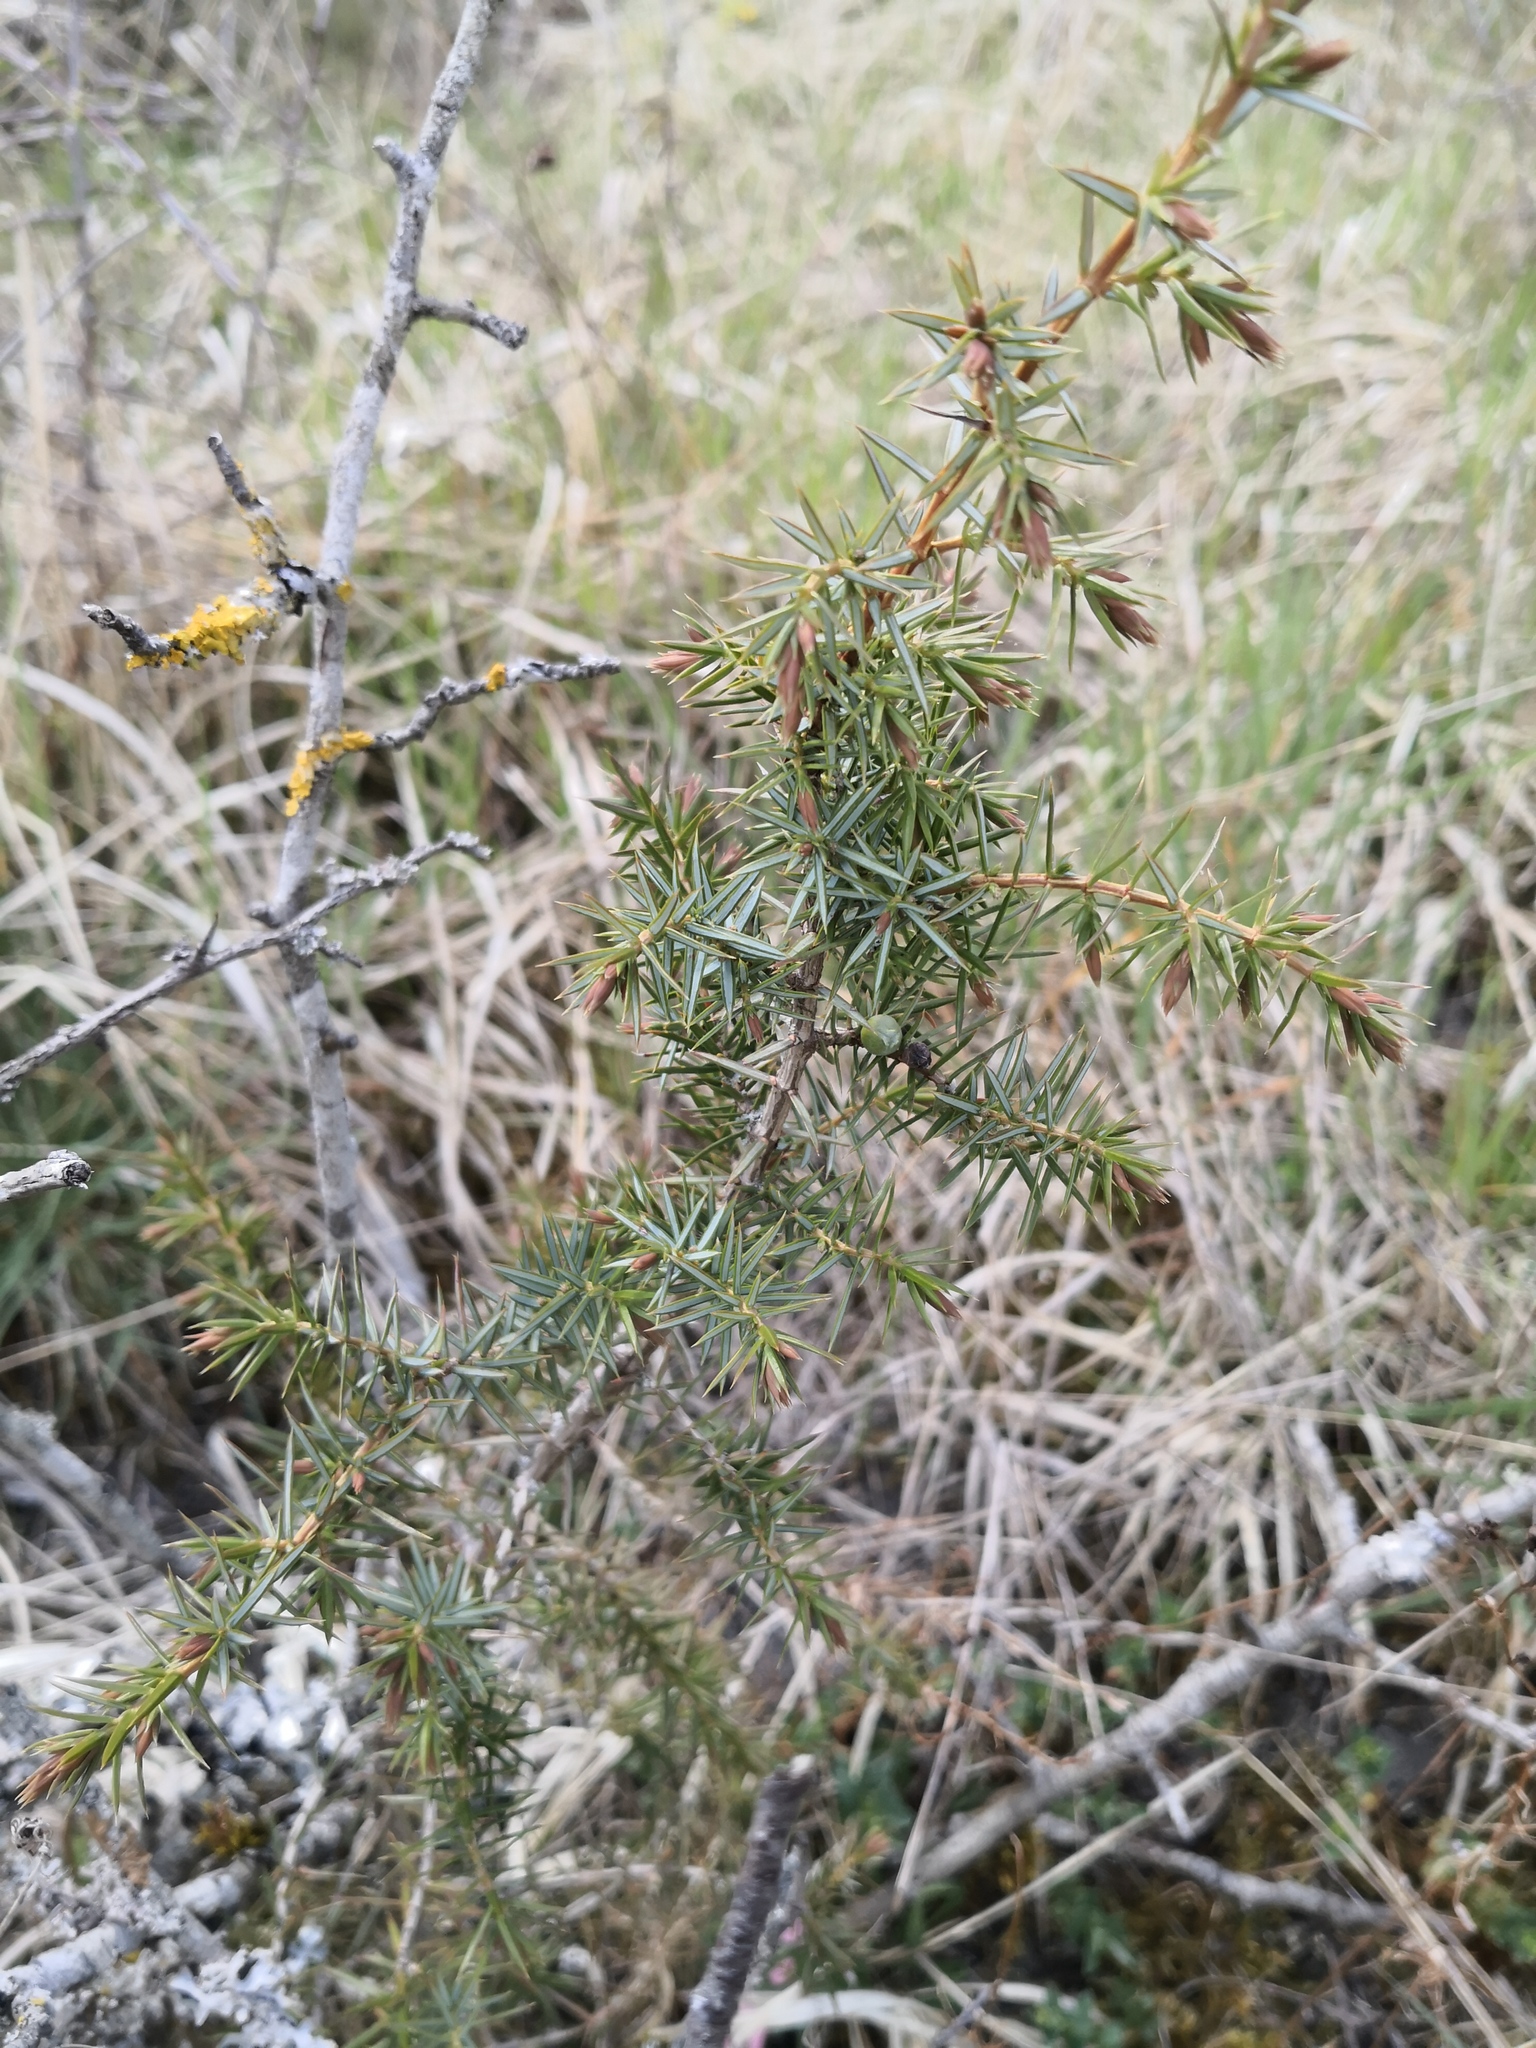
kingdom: Plantae
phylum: Tracheophyta
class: Pinopsida
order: Pinales
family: Cupressaceae
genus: Juniperus
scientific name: Juniperus communis
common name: Common juniper
